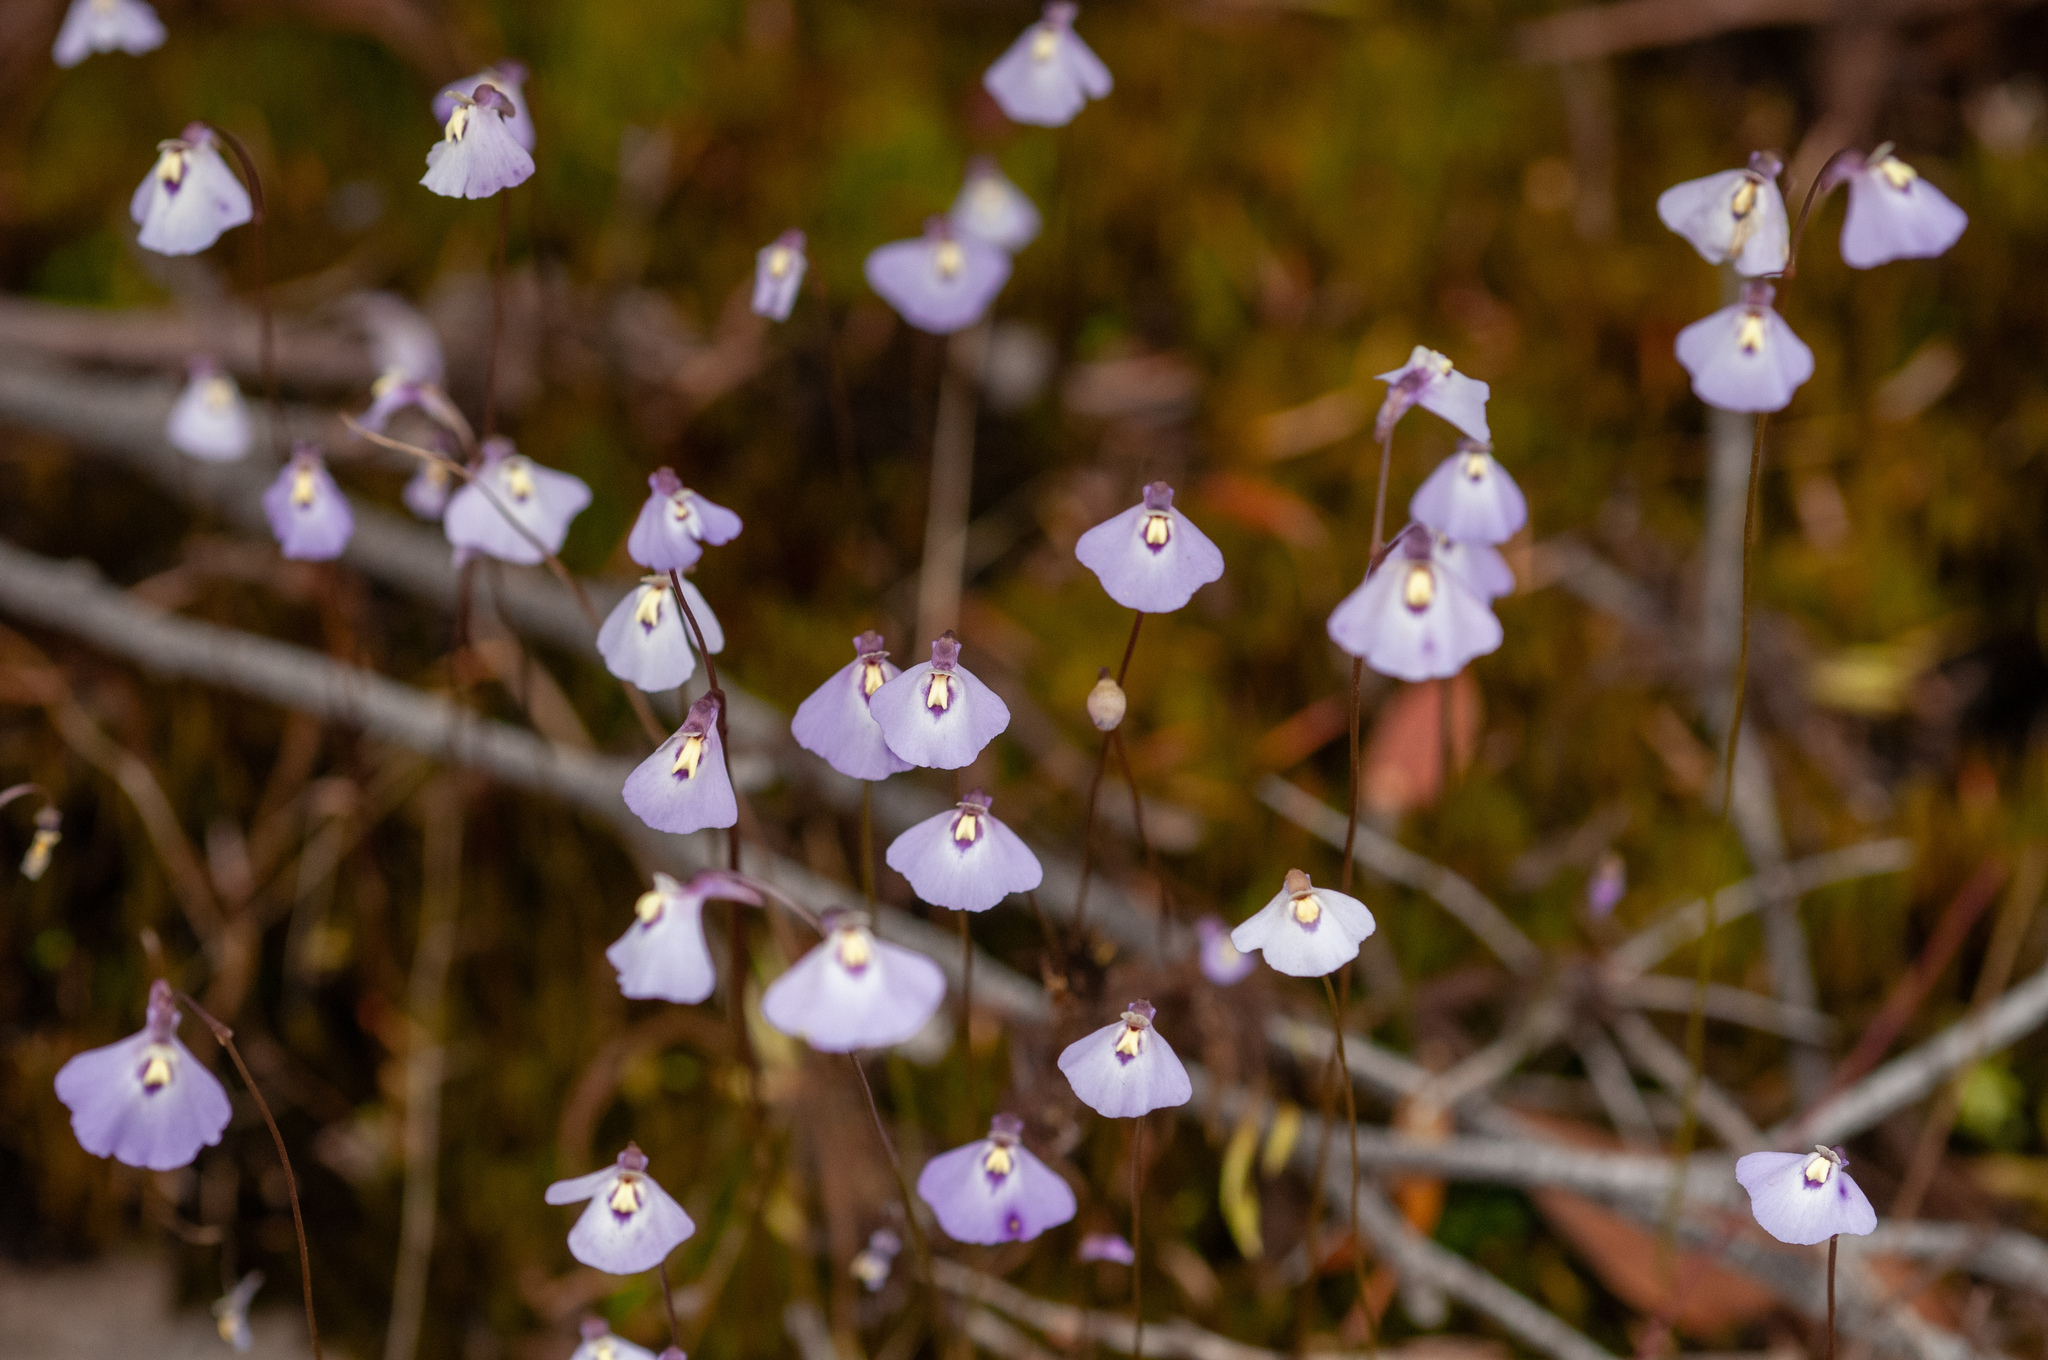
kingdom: Plantae
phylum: Tracheophyta
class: Magnoliopsida
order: Lamiales
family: Lentibulariaceae
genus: Utricularia
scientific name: Utricularia grampiana
